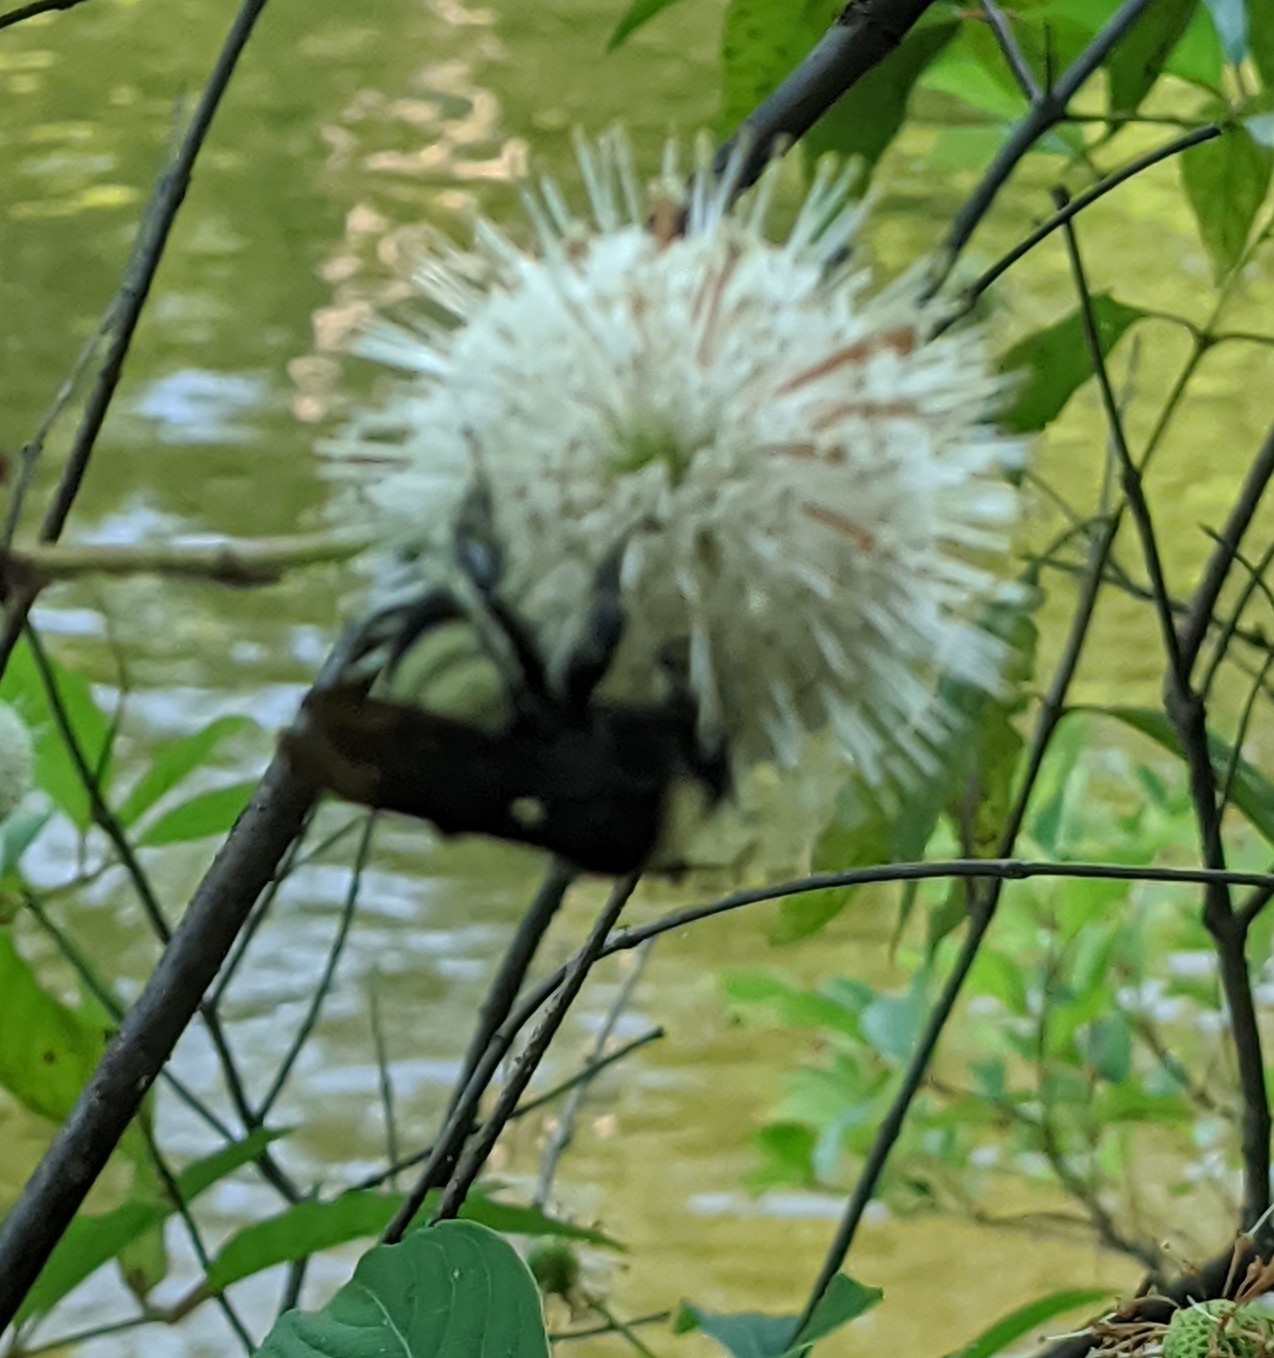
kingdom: Animalia
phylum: Arthropoda
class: Insecta
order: Hymenoptera
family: Apidae
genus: Bombus
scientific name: Bombus pensylvanicus
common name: Bumble bee
